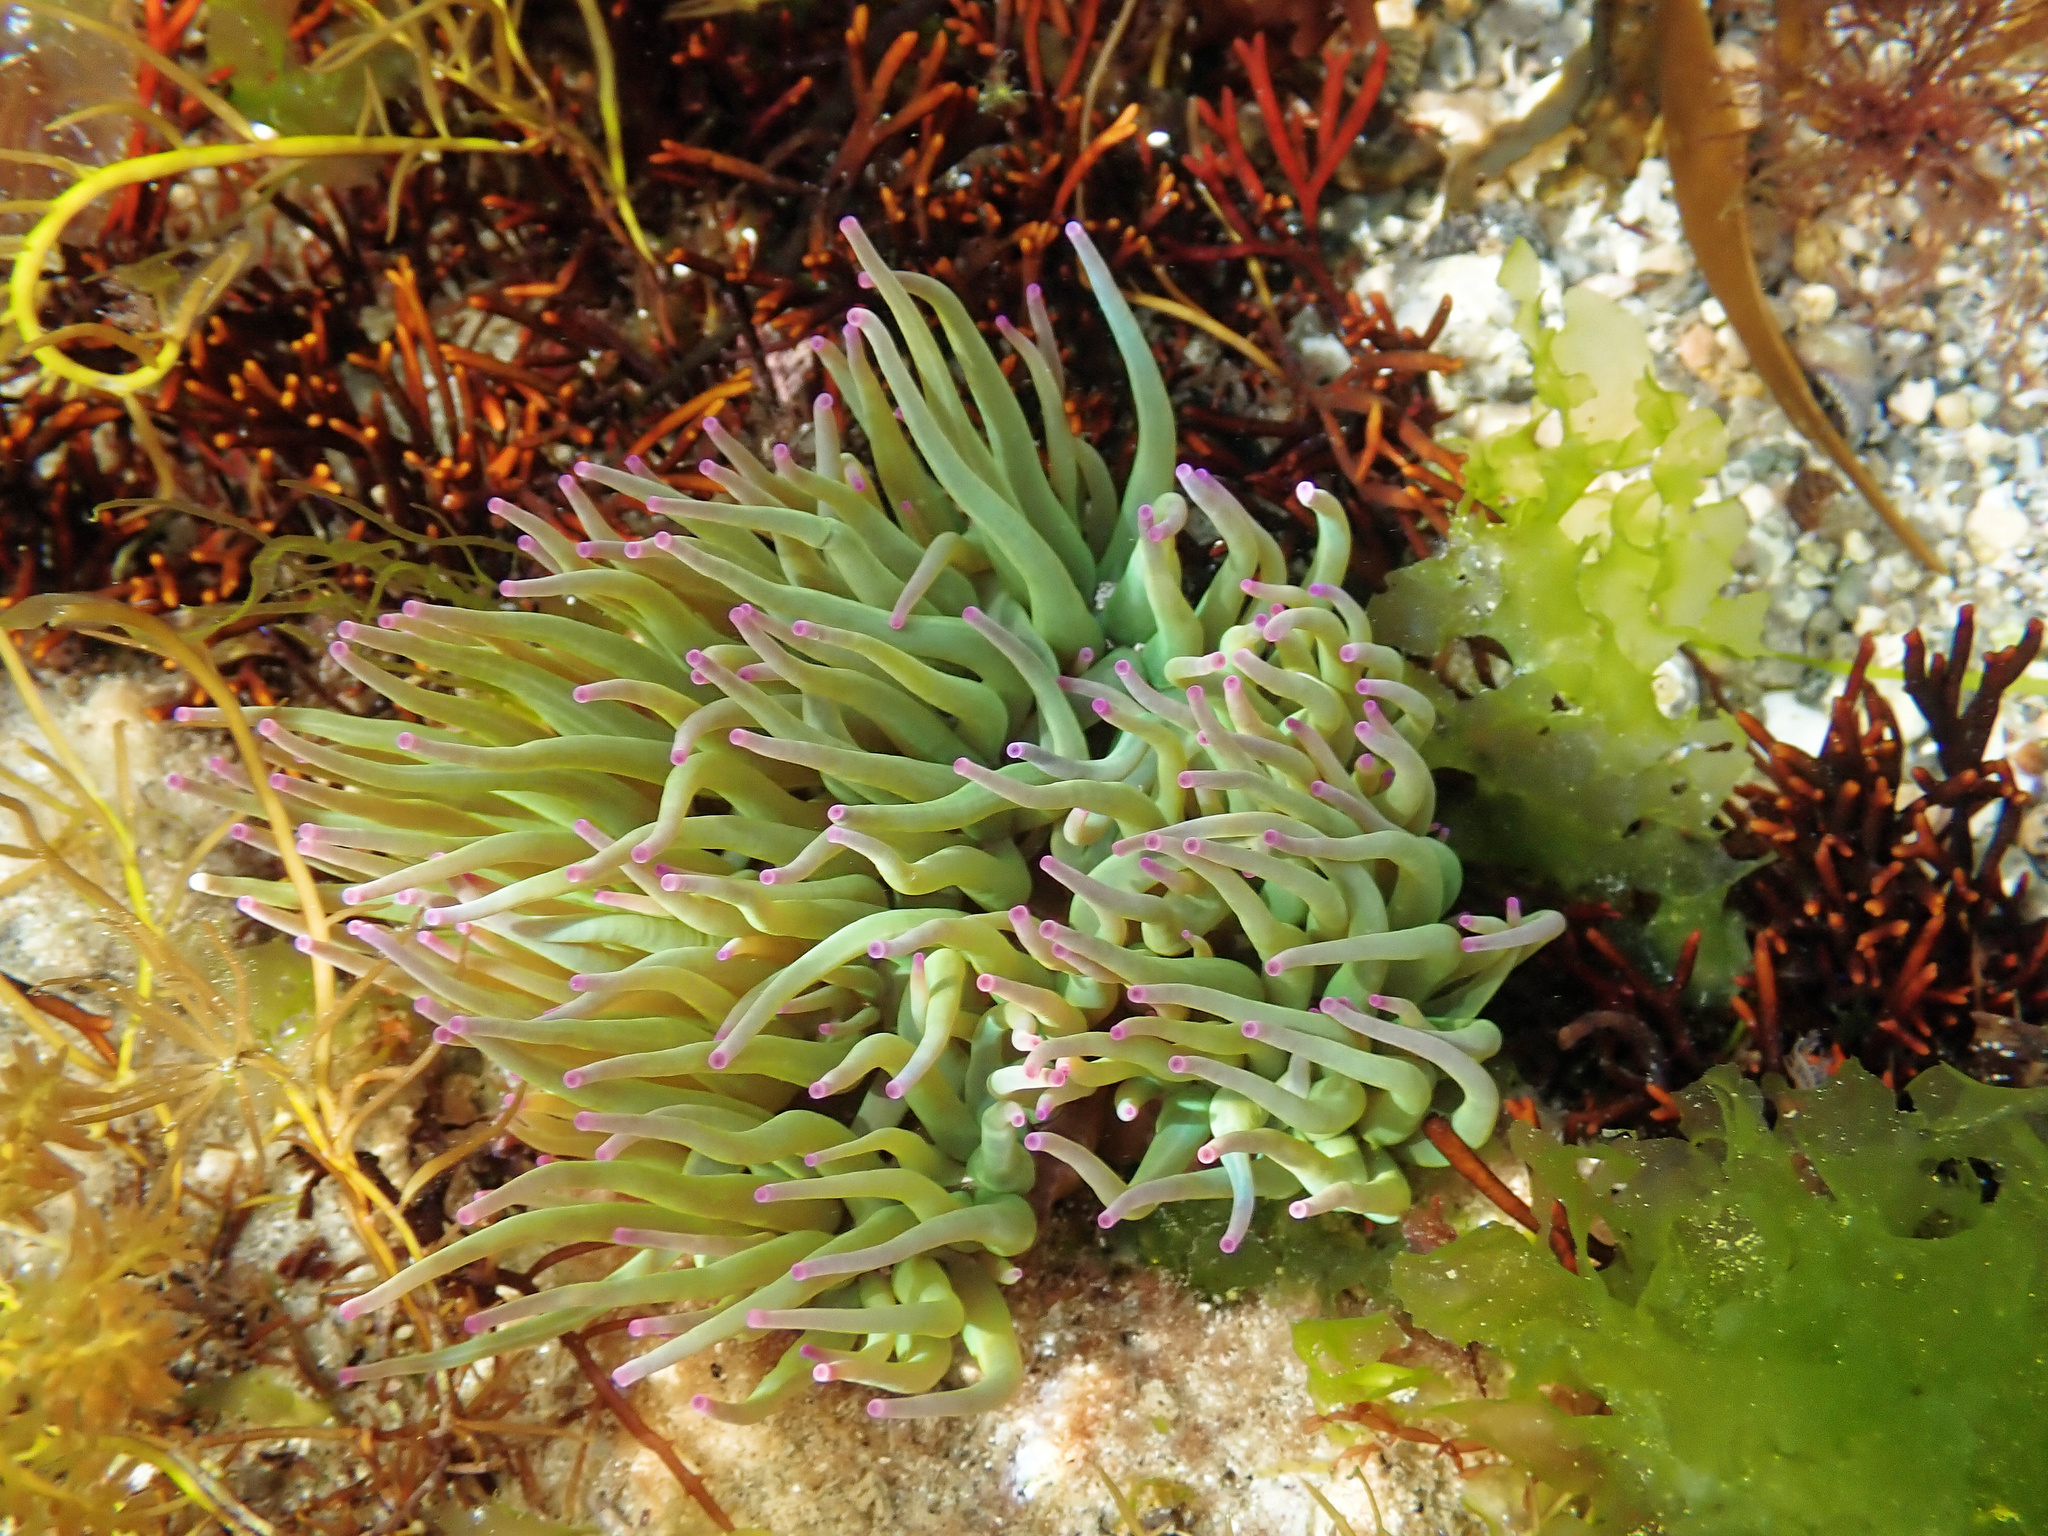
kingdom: Animalia
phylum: Cnidaria
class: Anthozoa
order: Actiniaria
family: Actiniidae
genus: Anemonia
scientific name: Anemonia viridis
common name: Snakelocks anemone
